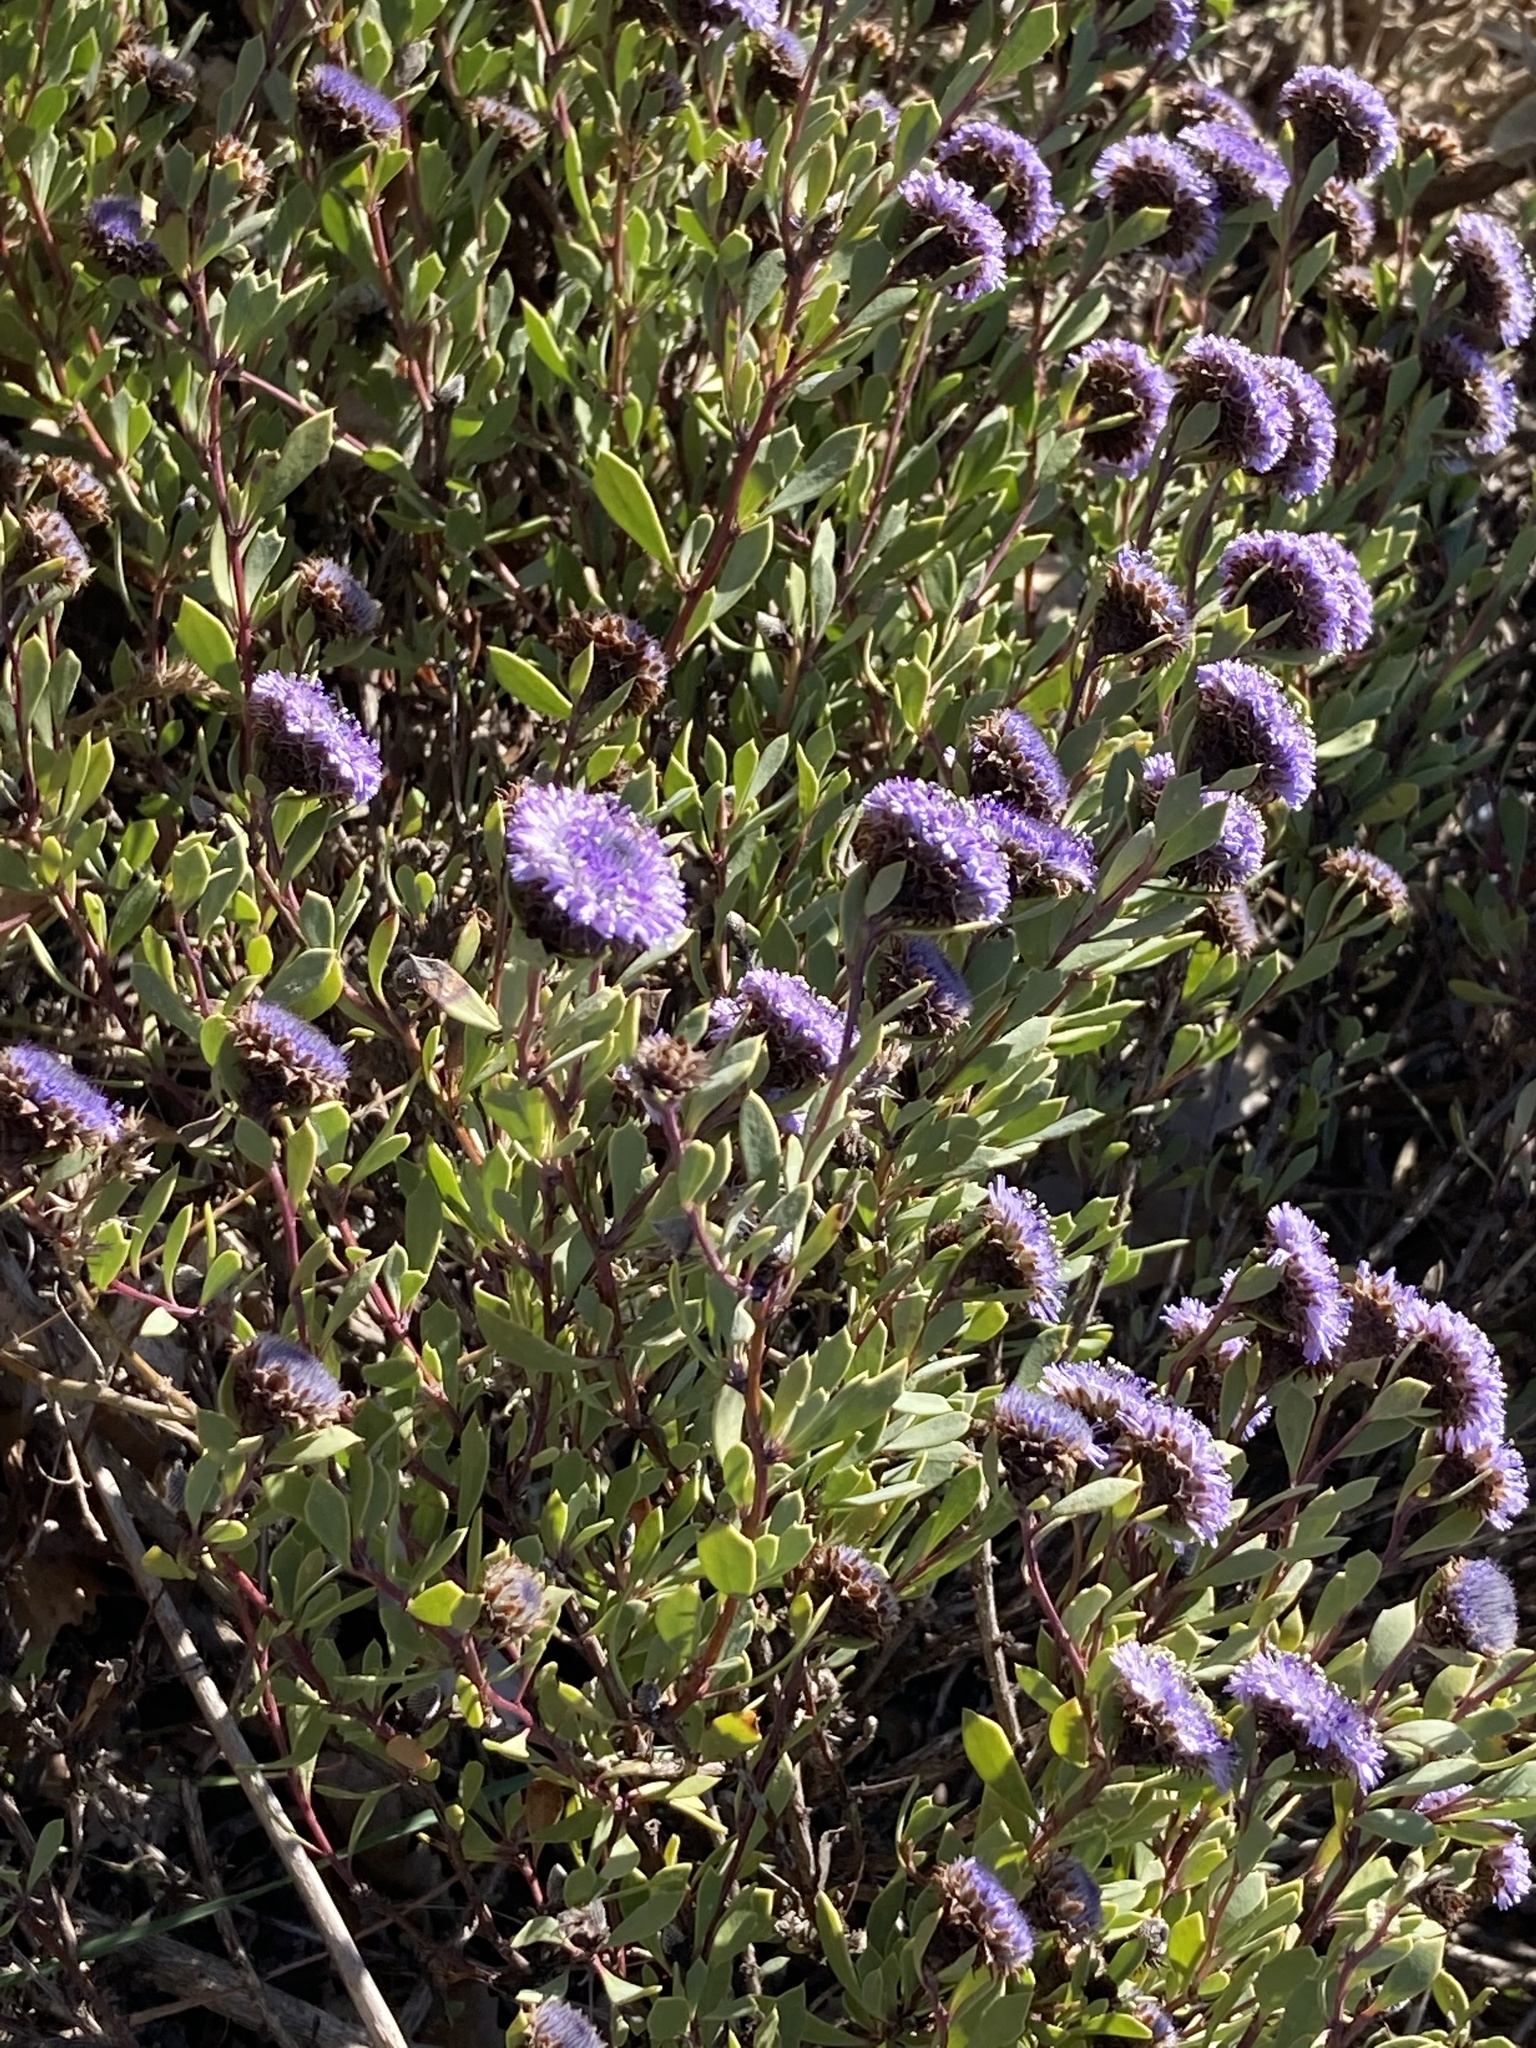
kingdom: Plantae
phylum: Tracheophyta
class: Magnoliopsida
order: Lamiales
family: Plantaginaceae
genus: Globularia
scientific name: Globularia alypum
